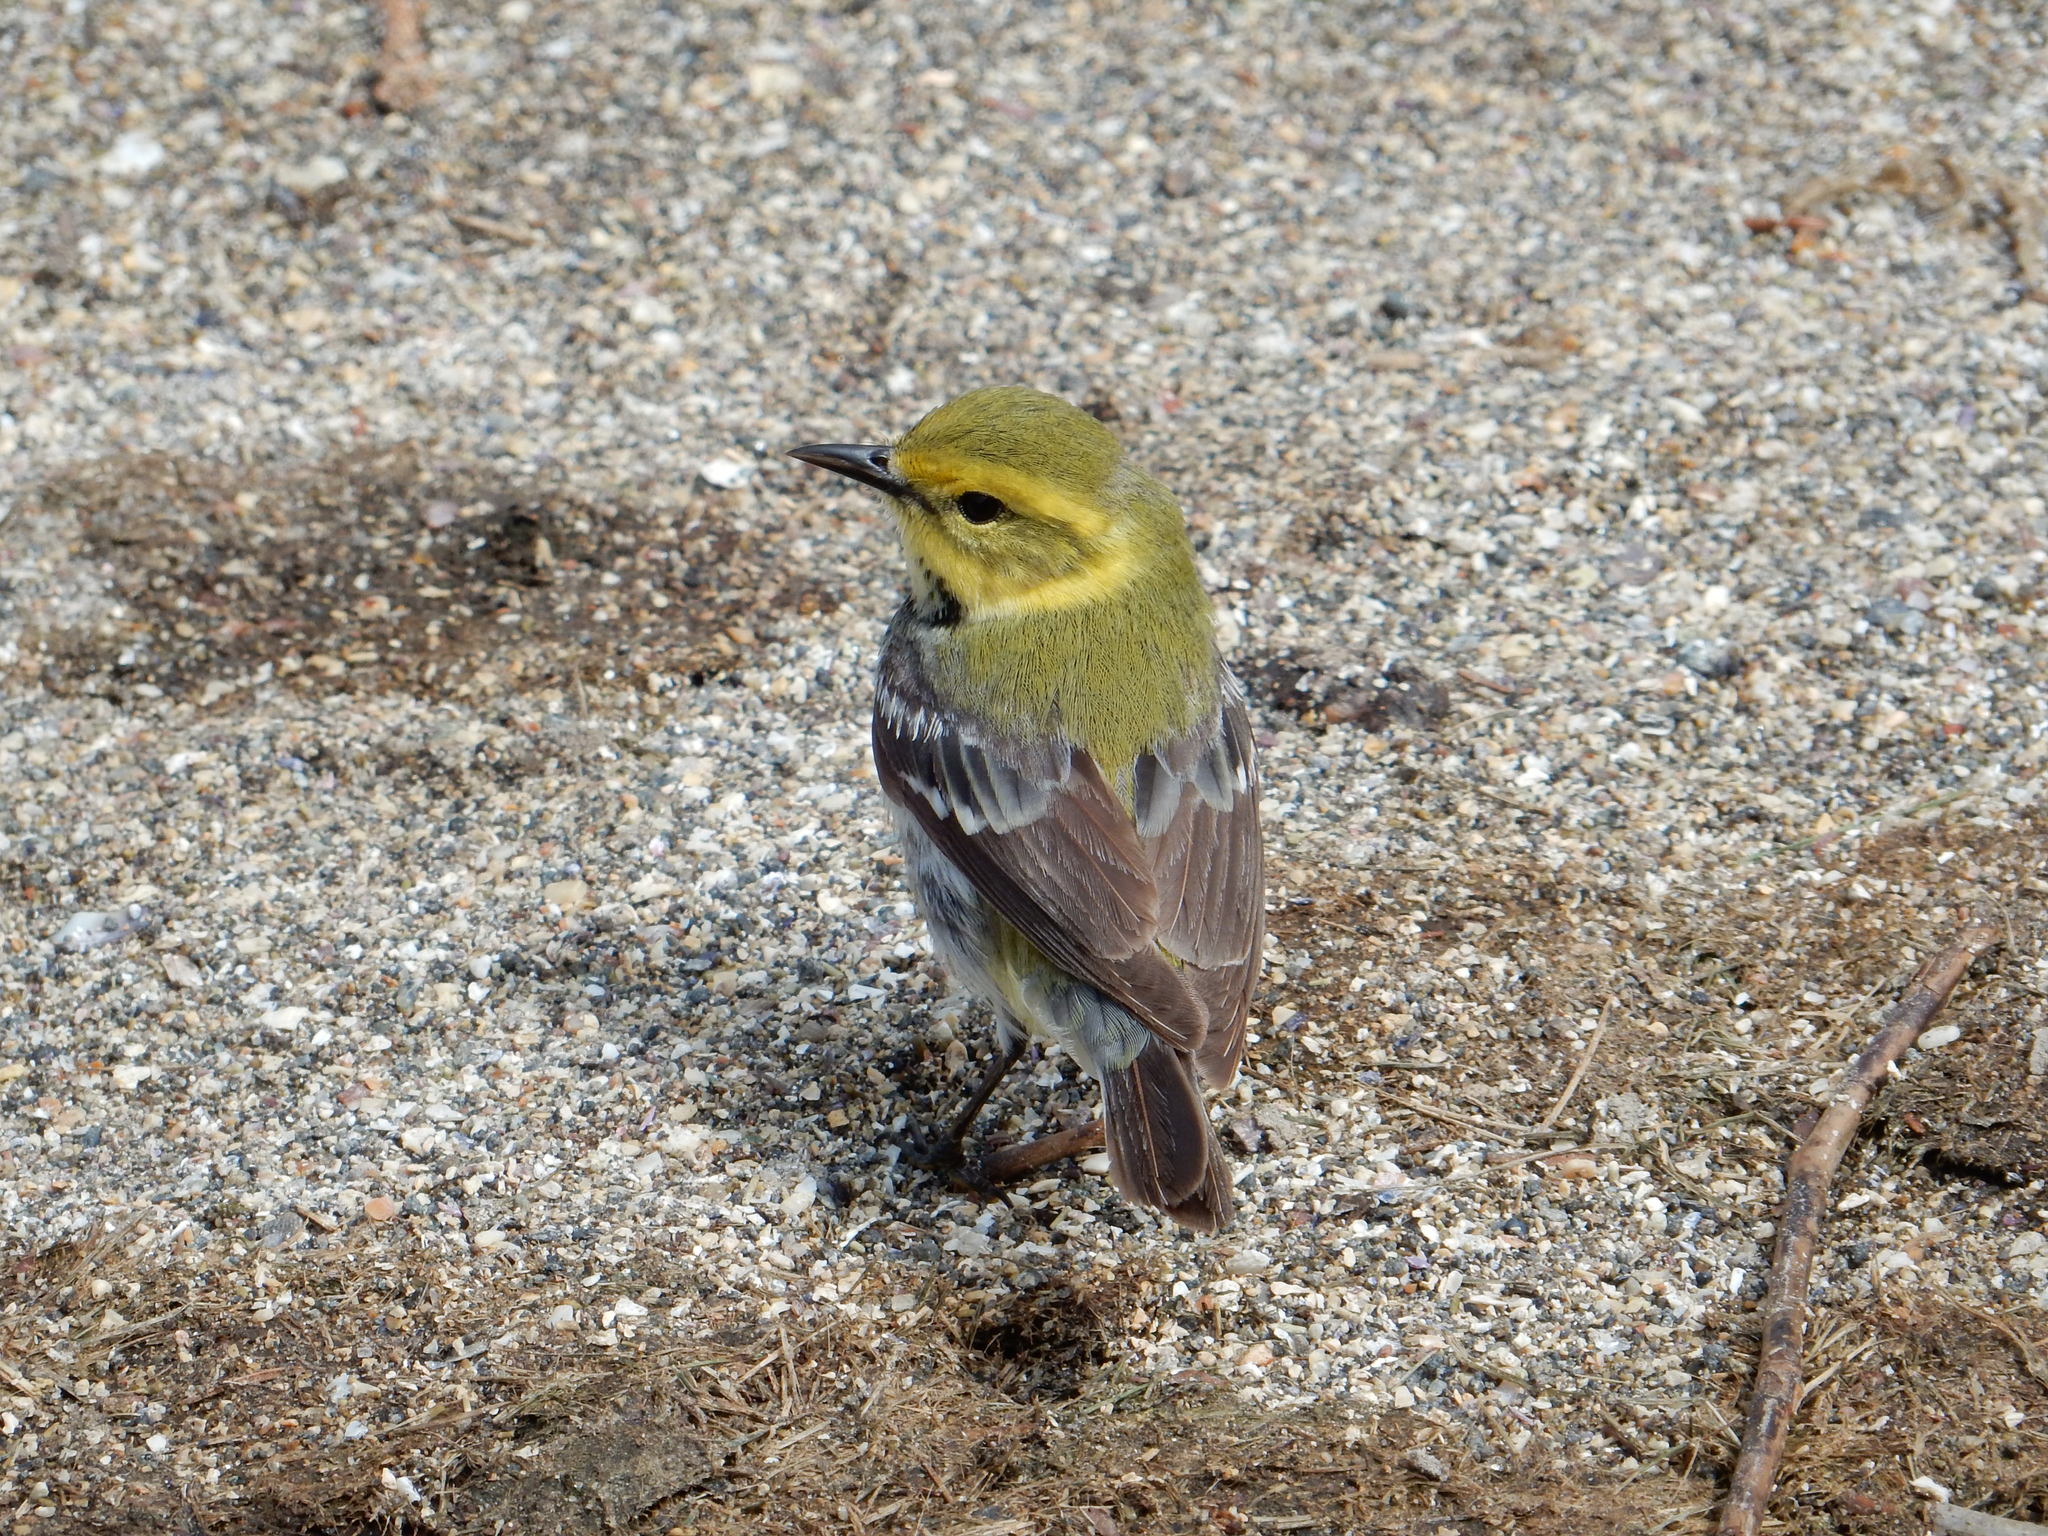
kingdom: Animalia
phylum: Chordata
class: Aves
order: Passeriformes
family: Parulidae
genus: Setophaga
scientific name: Setophaga virens
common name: Black-throated green warbler
